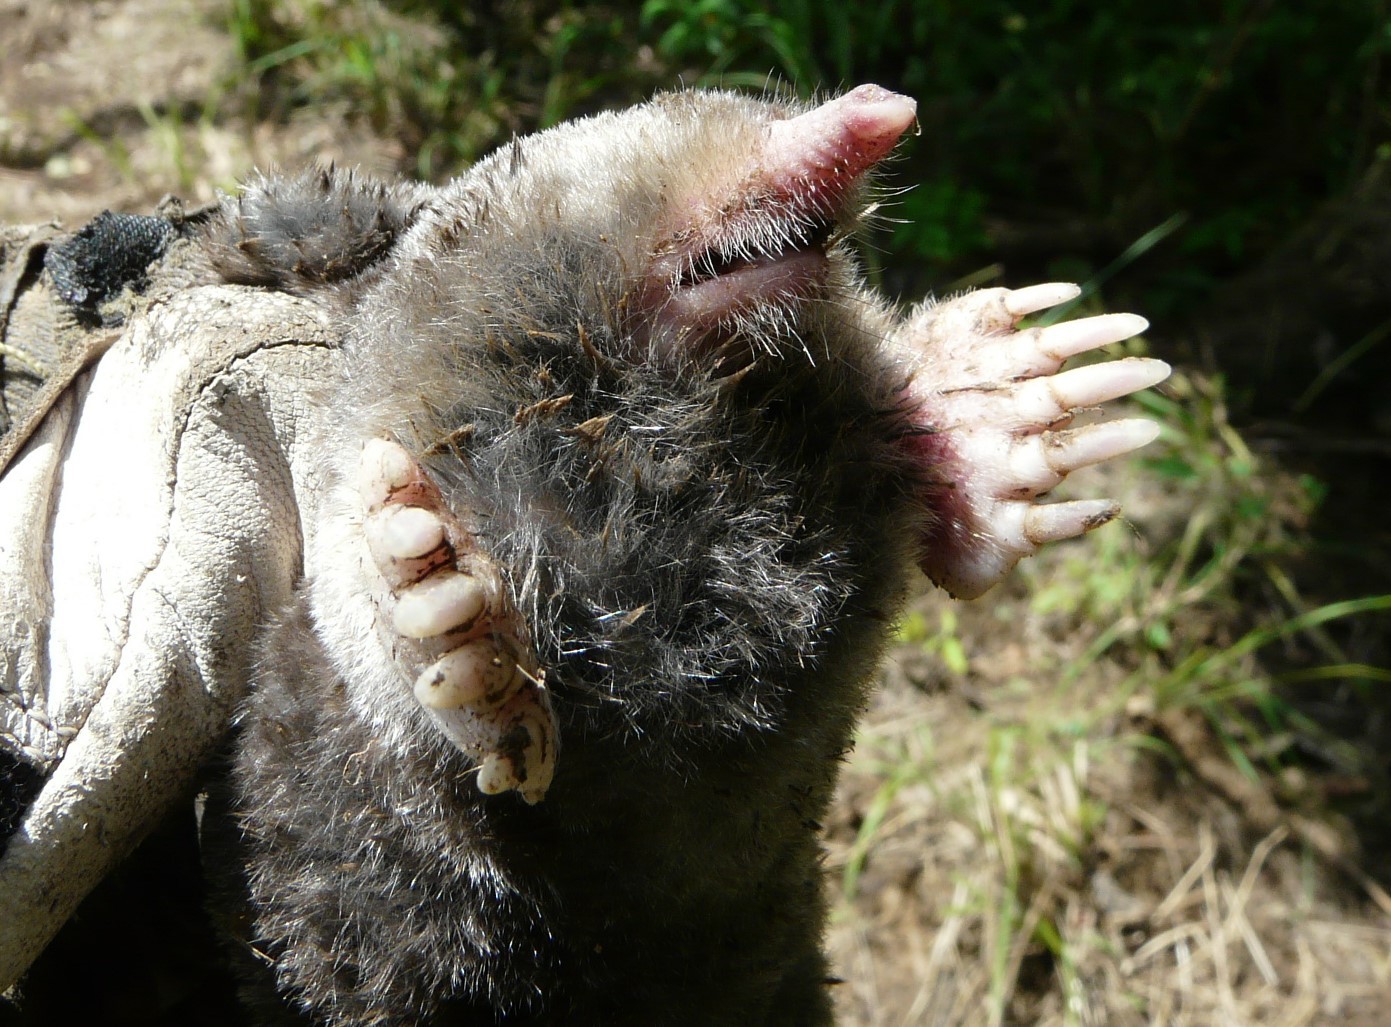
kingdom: Animalia
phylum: Chordata
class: Mammalia
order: Soricomorpha
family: Talpidae
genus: Scalopus
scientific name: Scalopus aquaticus
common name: Eastern mole
